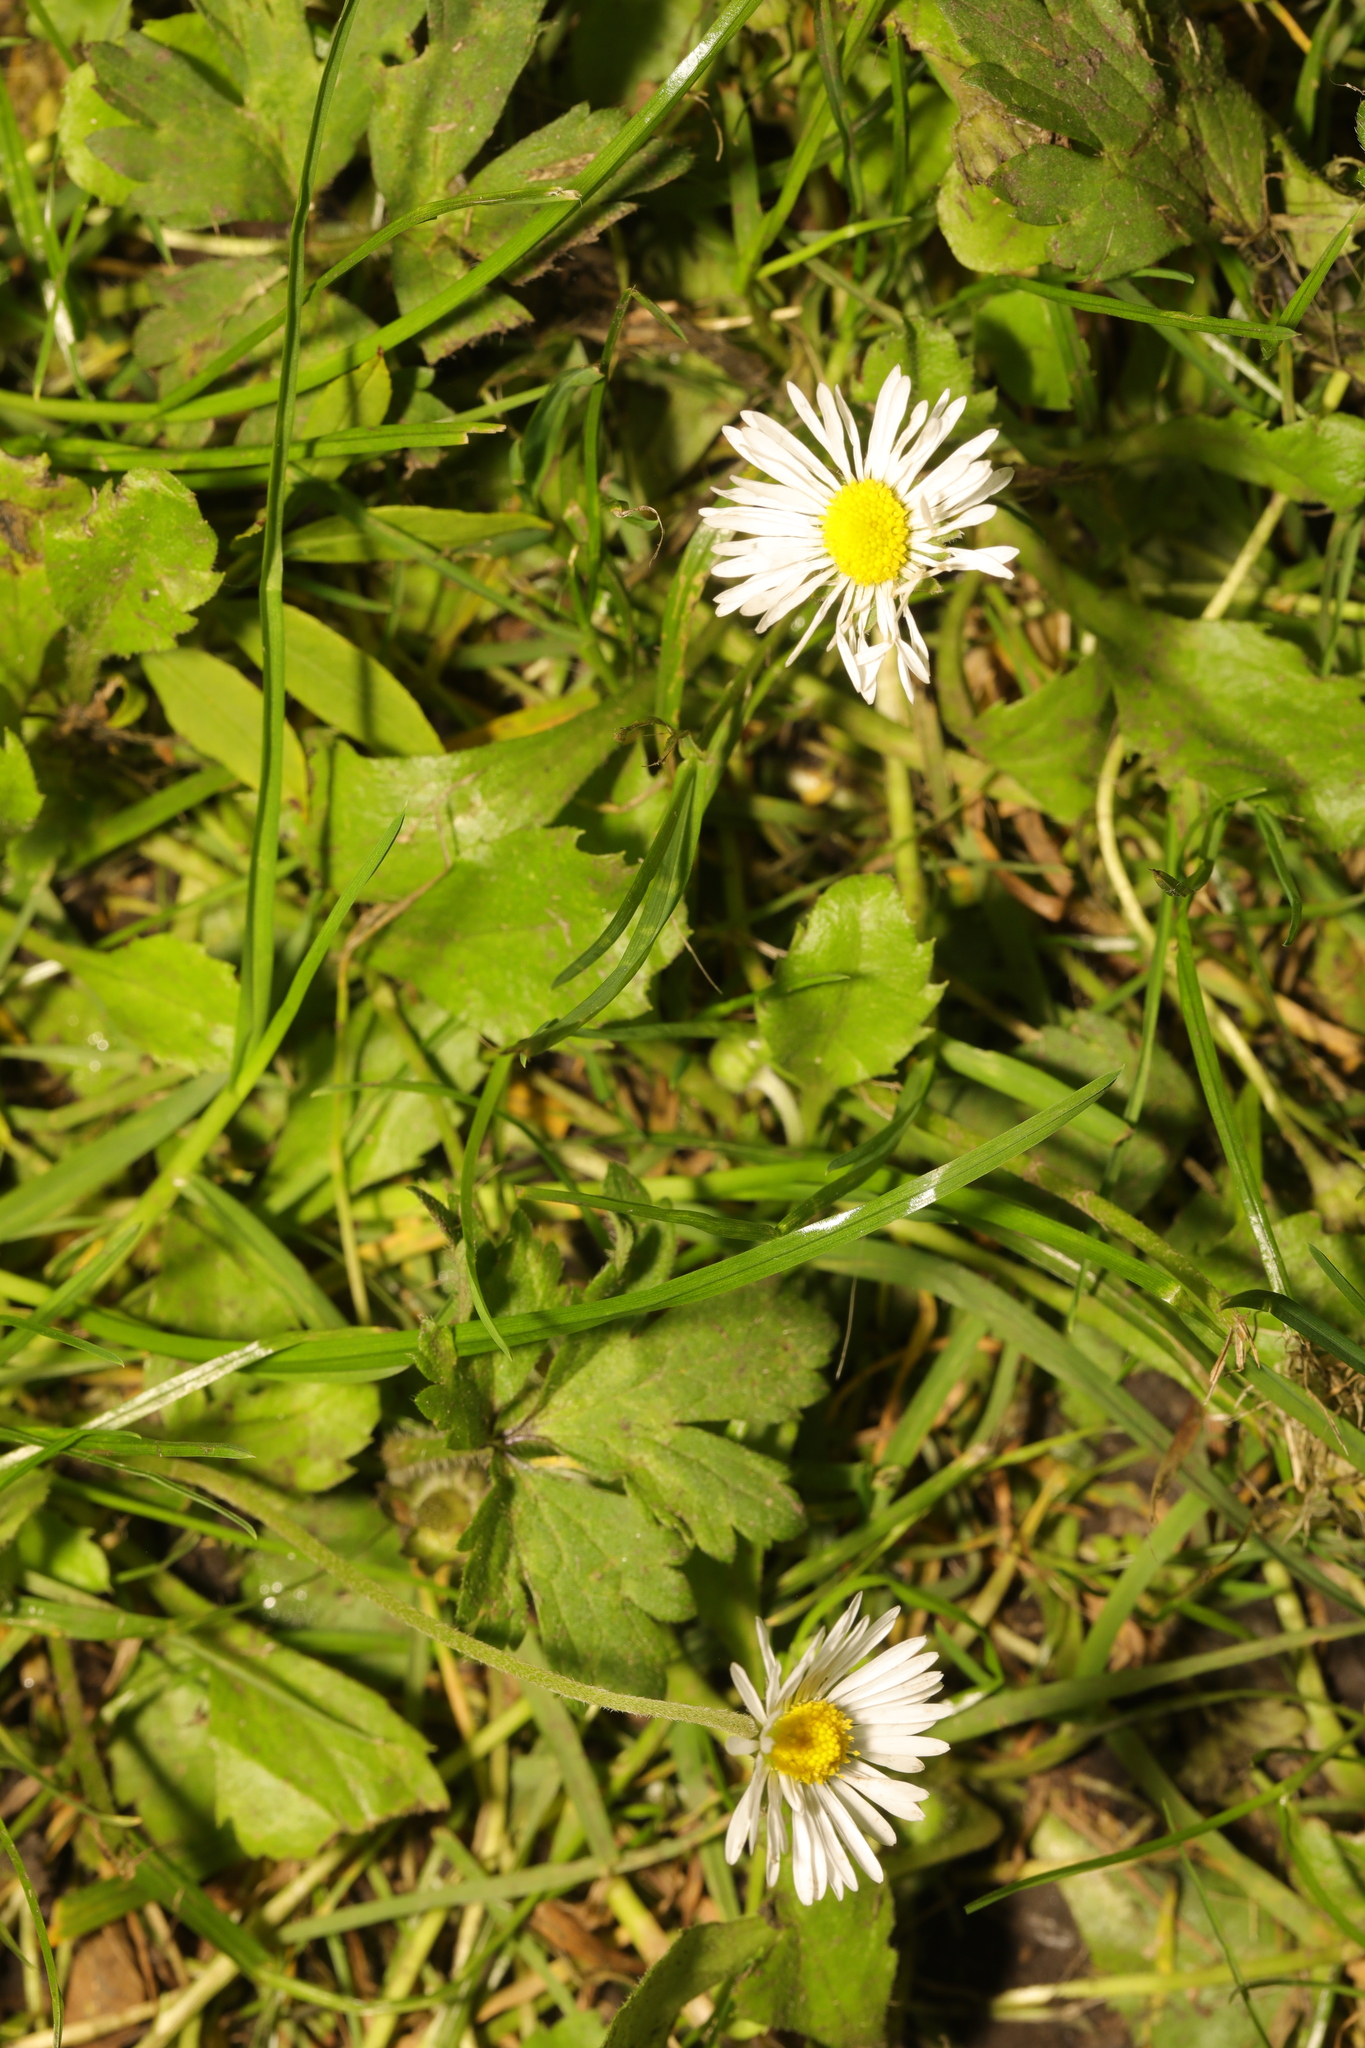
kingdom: Plantae
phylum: Tracheophyta
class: Magnoliopsida
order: Asterales
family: Asteraceae
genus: Bellis
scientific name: Bellis perennis
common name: Lawndaisy
